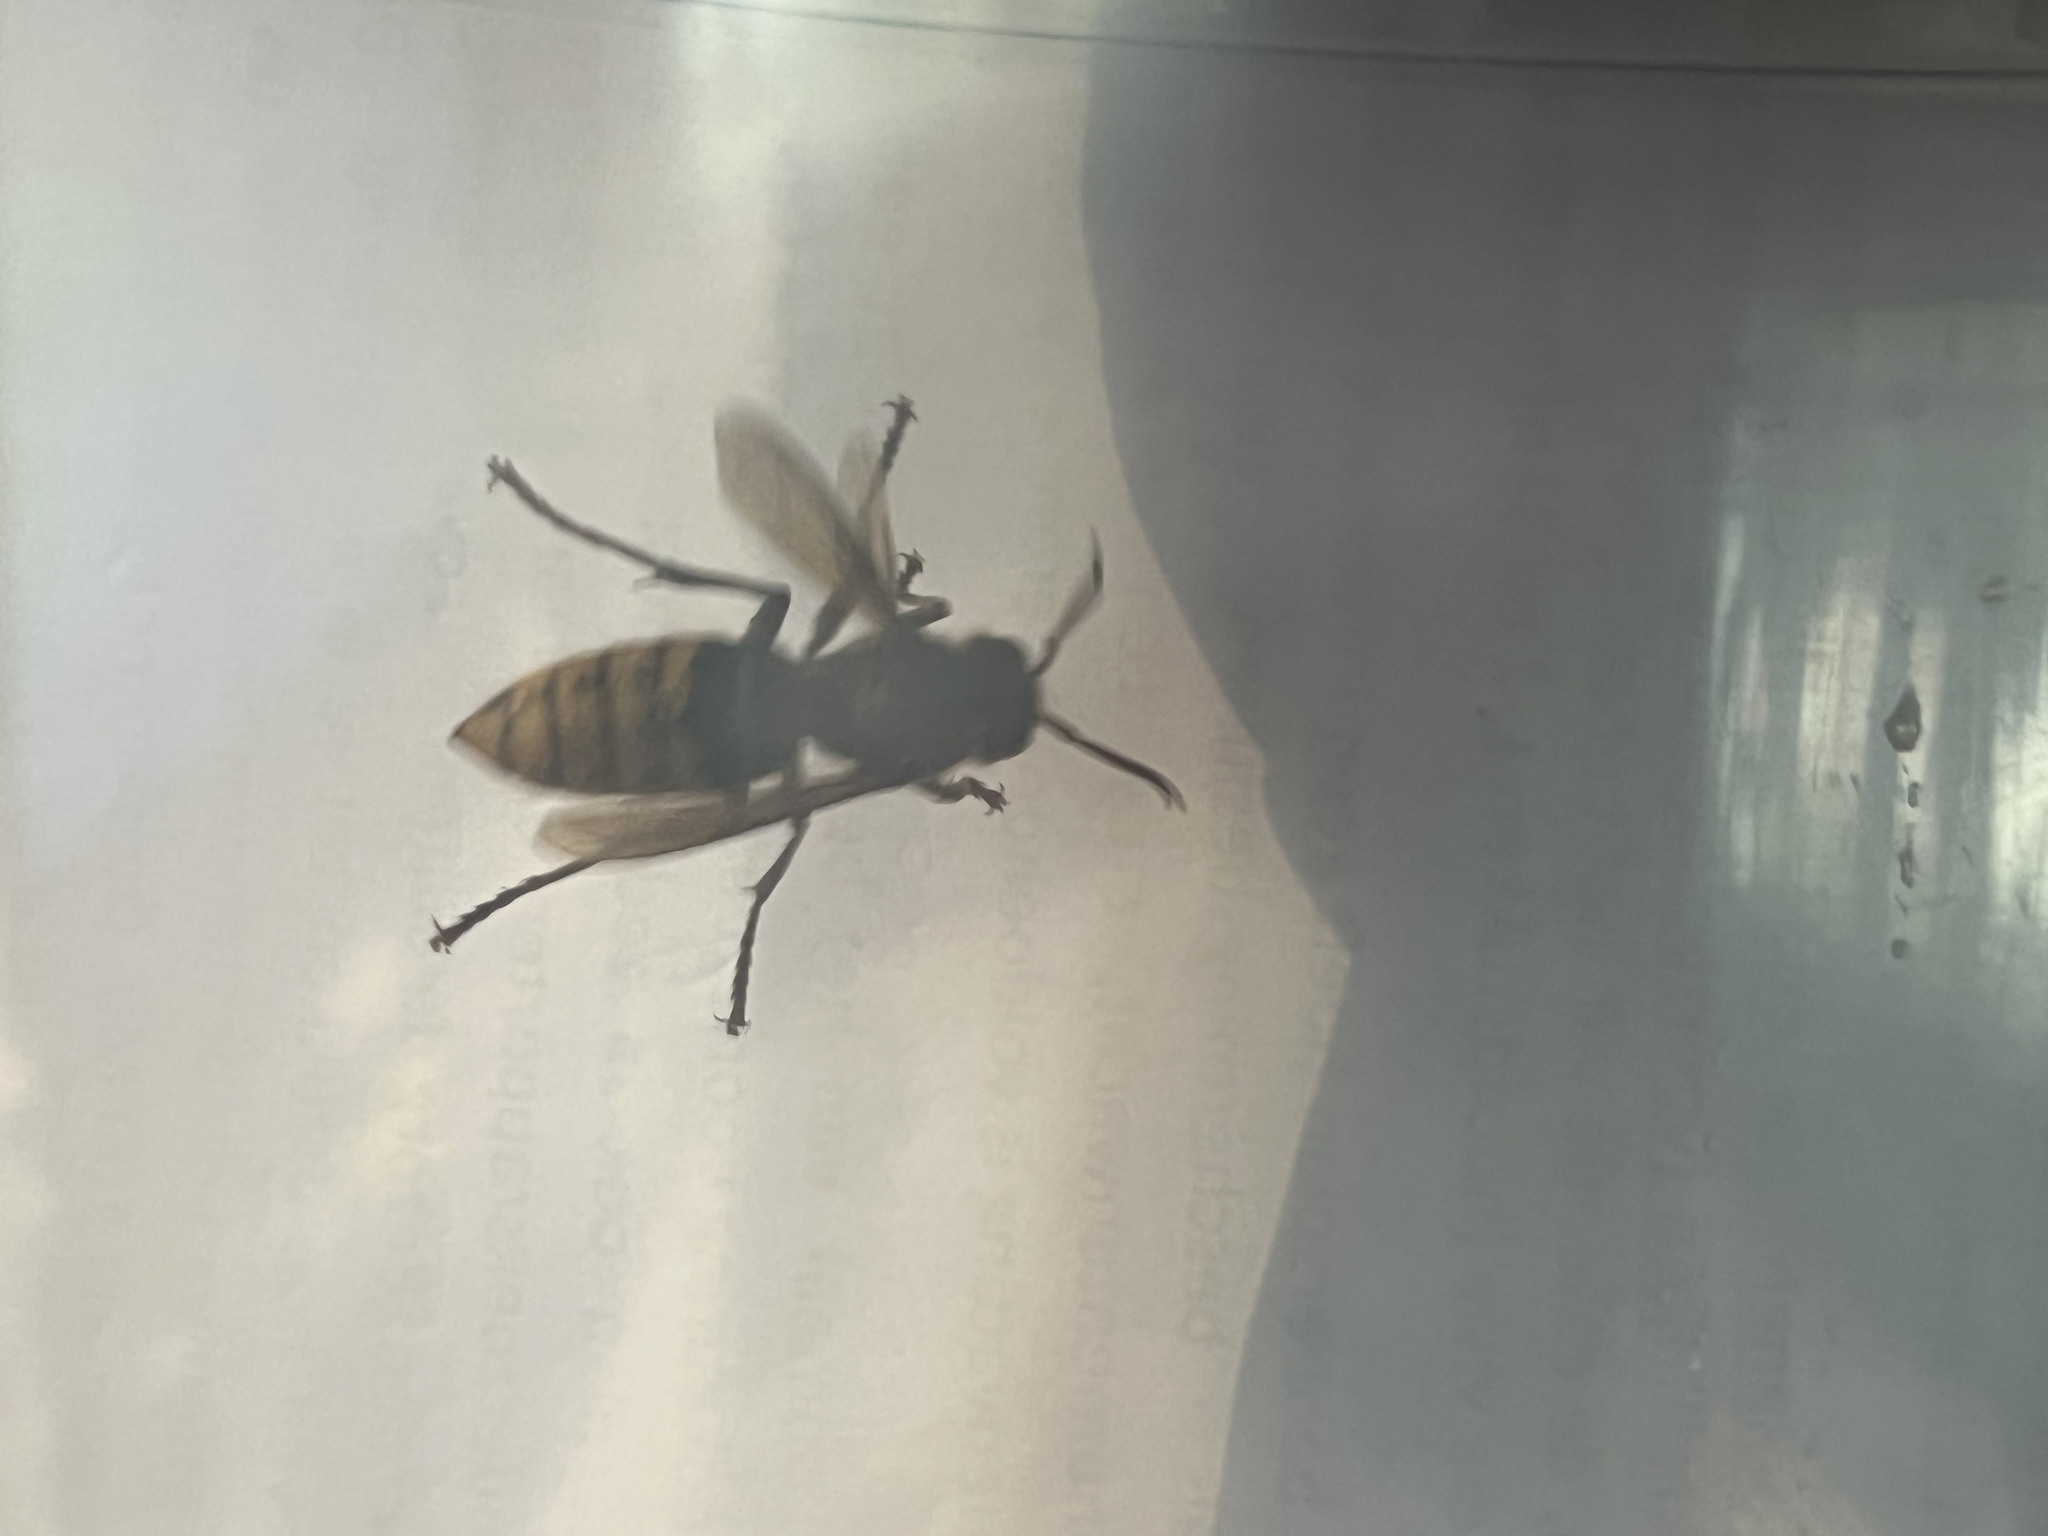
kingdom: Animalia
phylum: Arthropoda
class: Insecta
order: Hymenoptera
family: Vespidae
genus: Vespa
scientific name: Vespa crabro
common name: Hornet
